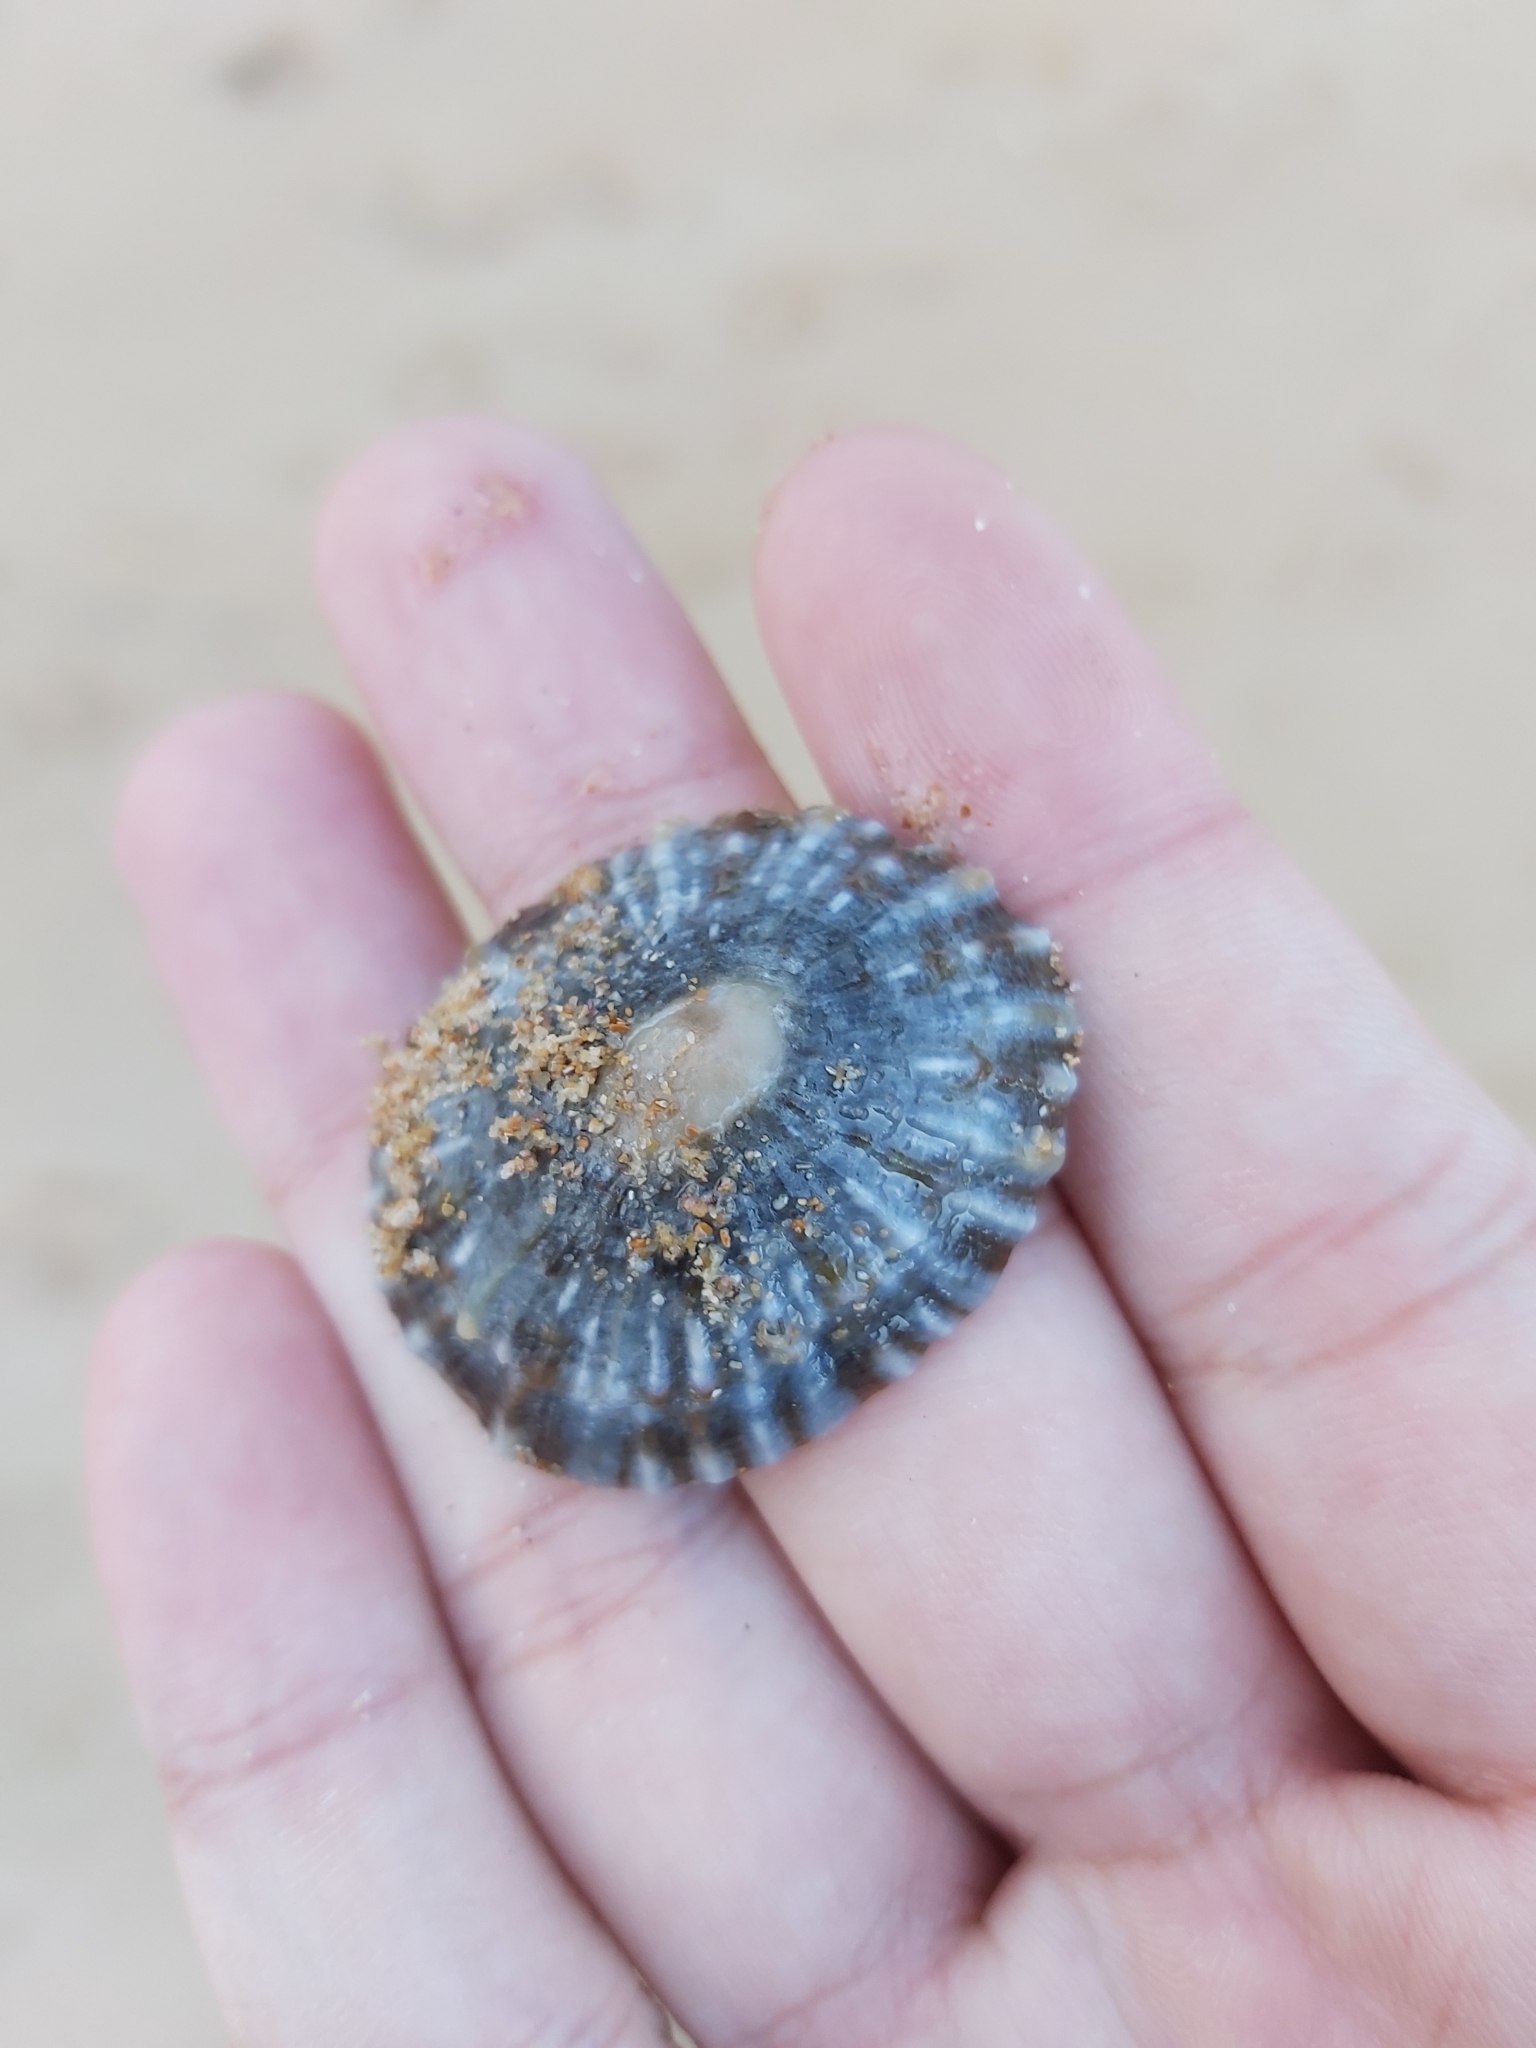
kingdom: Animalia
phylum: Mollusca
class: Gastropoda
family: Nacellidae
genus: Cellana
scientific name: Cellana tramoserica
